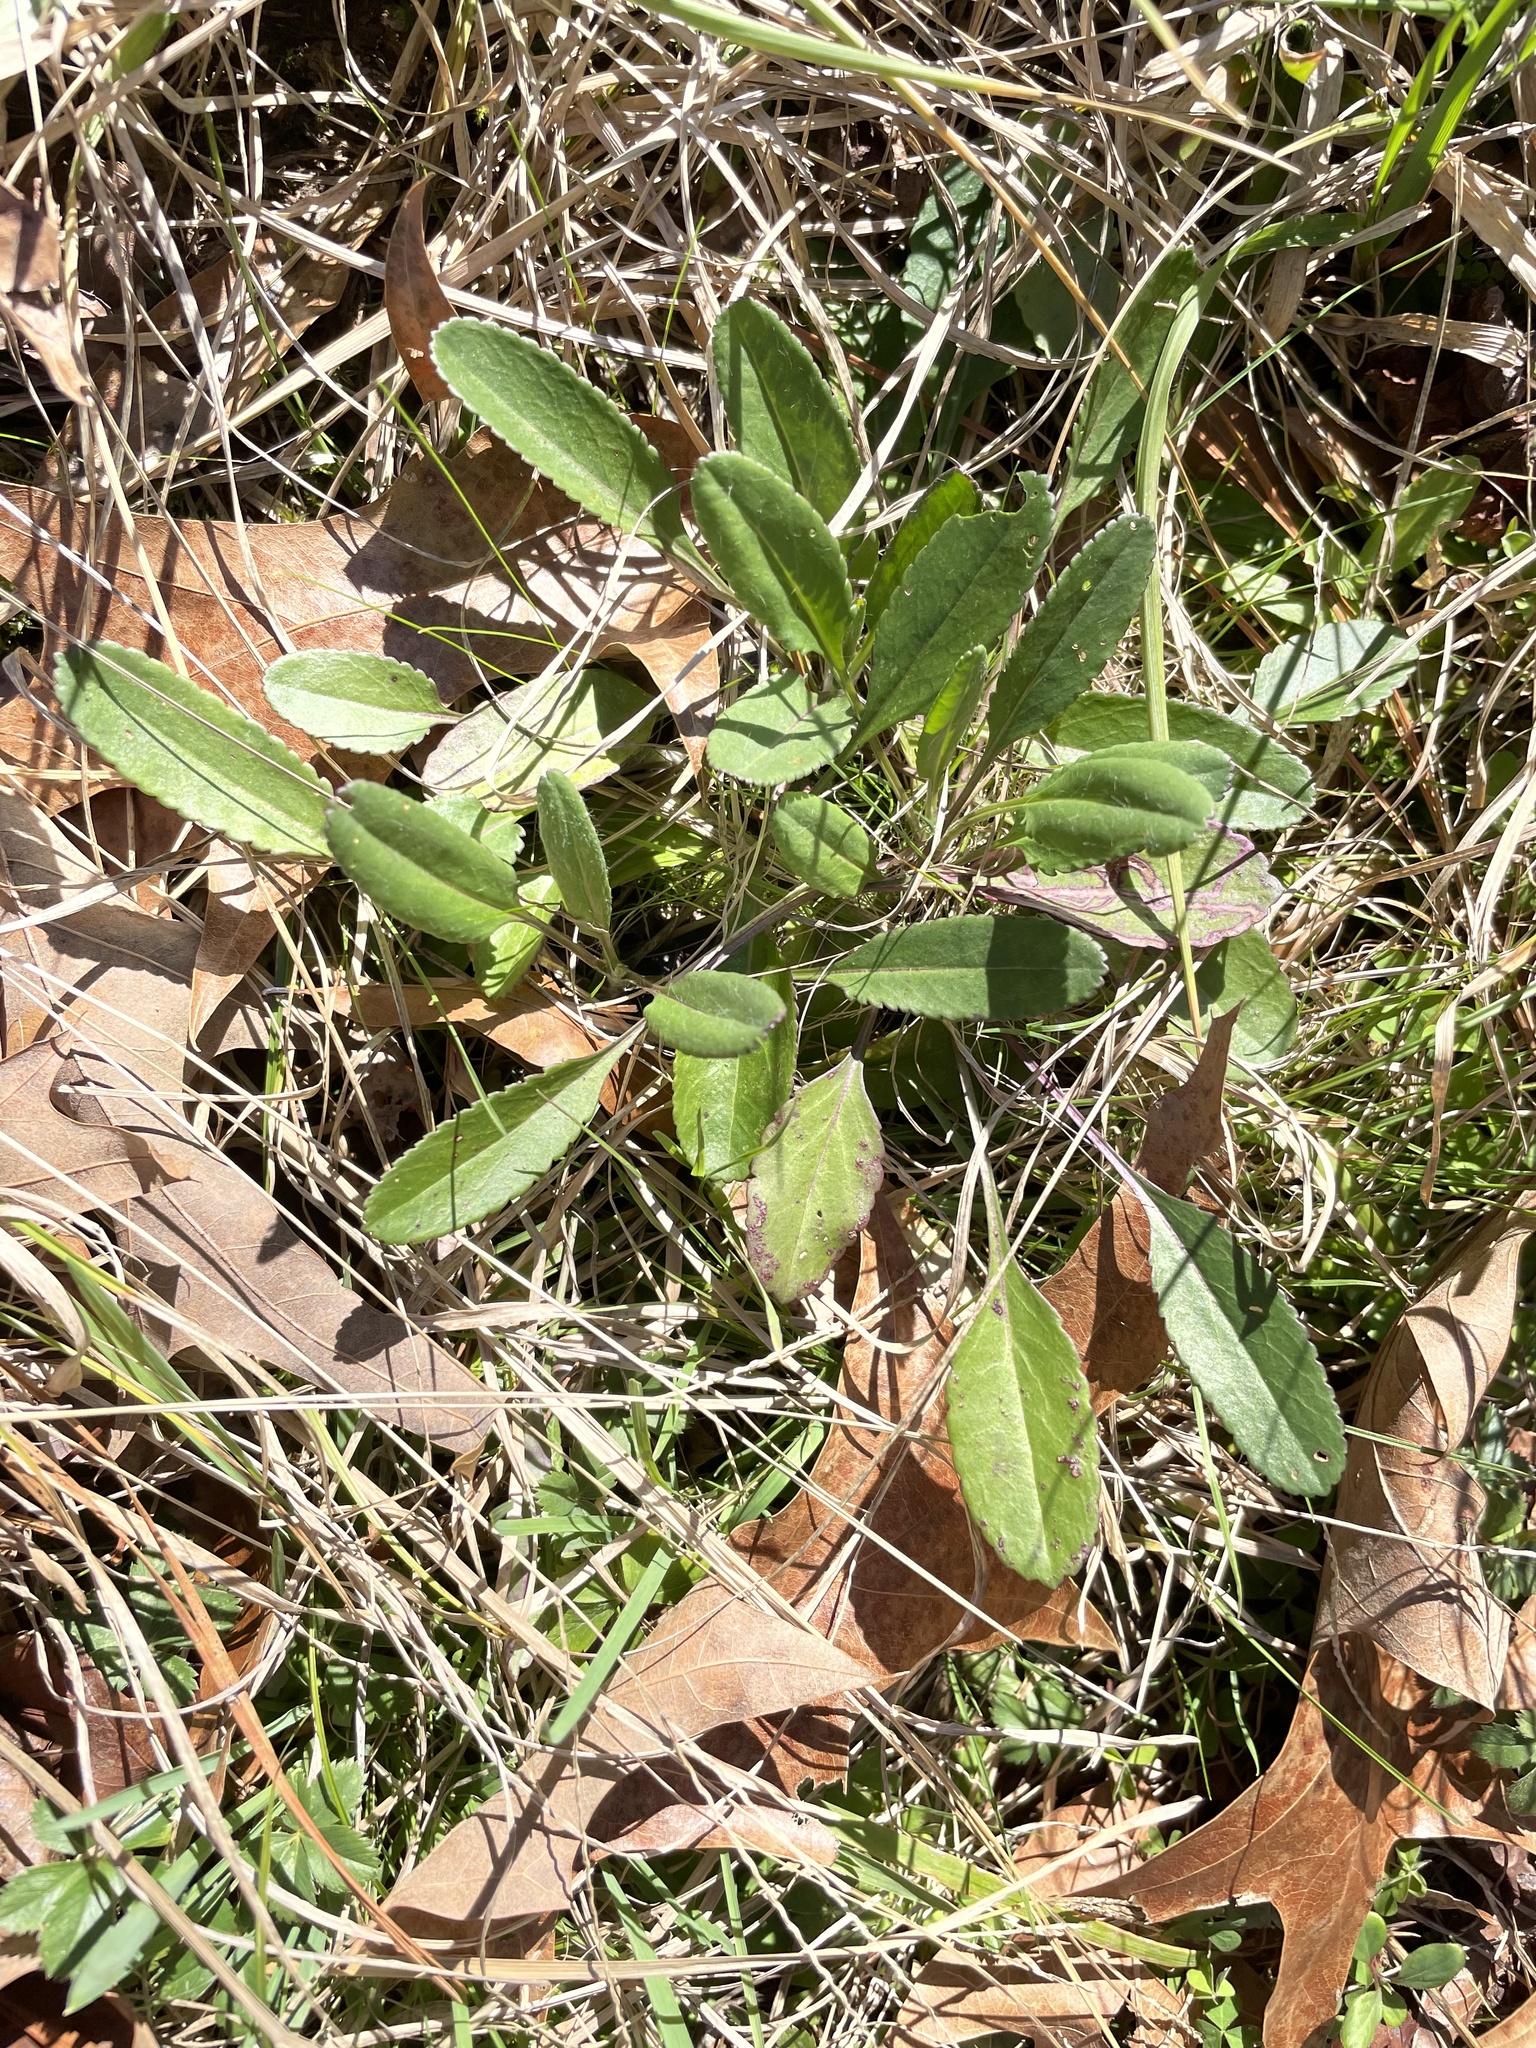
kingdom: Plantae
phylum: Tracheophyta
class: Magnoliopsida
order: Asterales
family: Asteraceae
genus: Packera
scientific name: Packera anonyma
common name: Small ragwort
